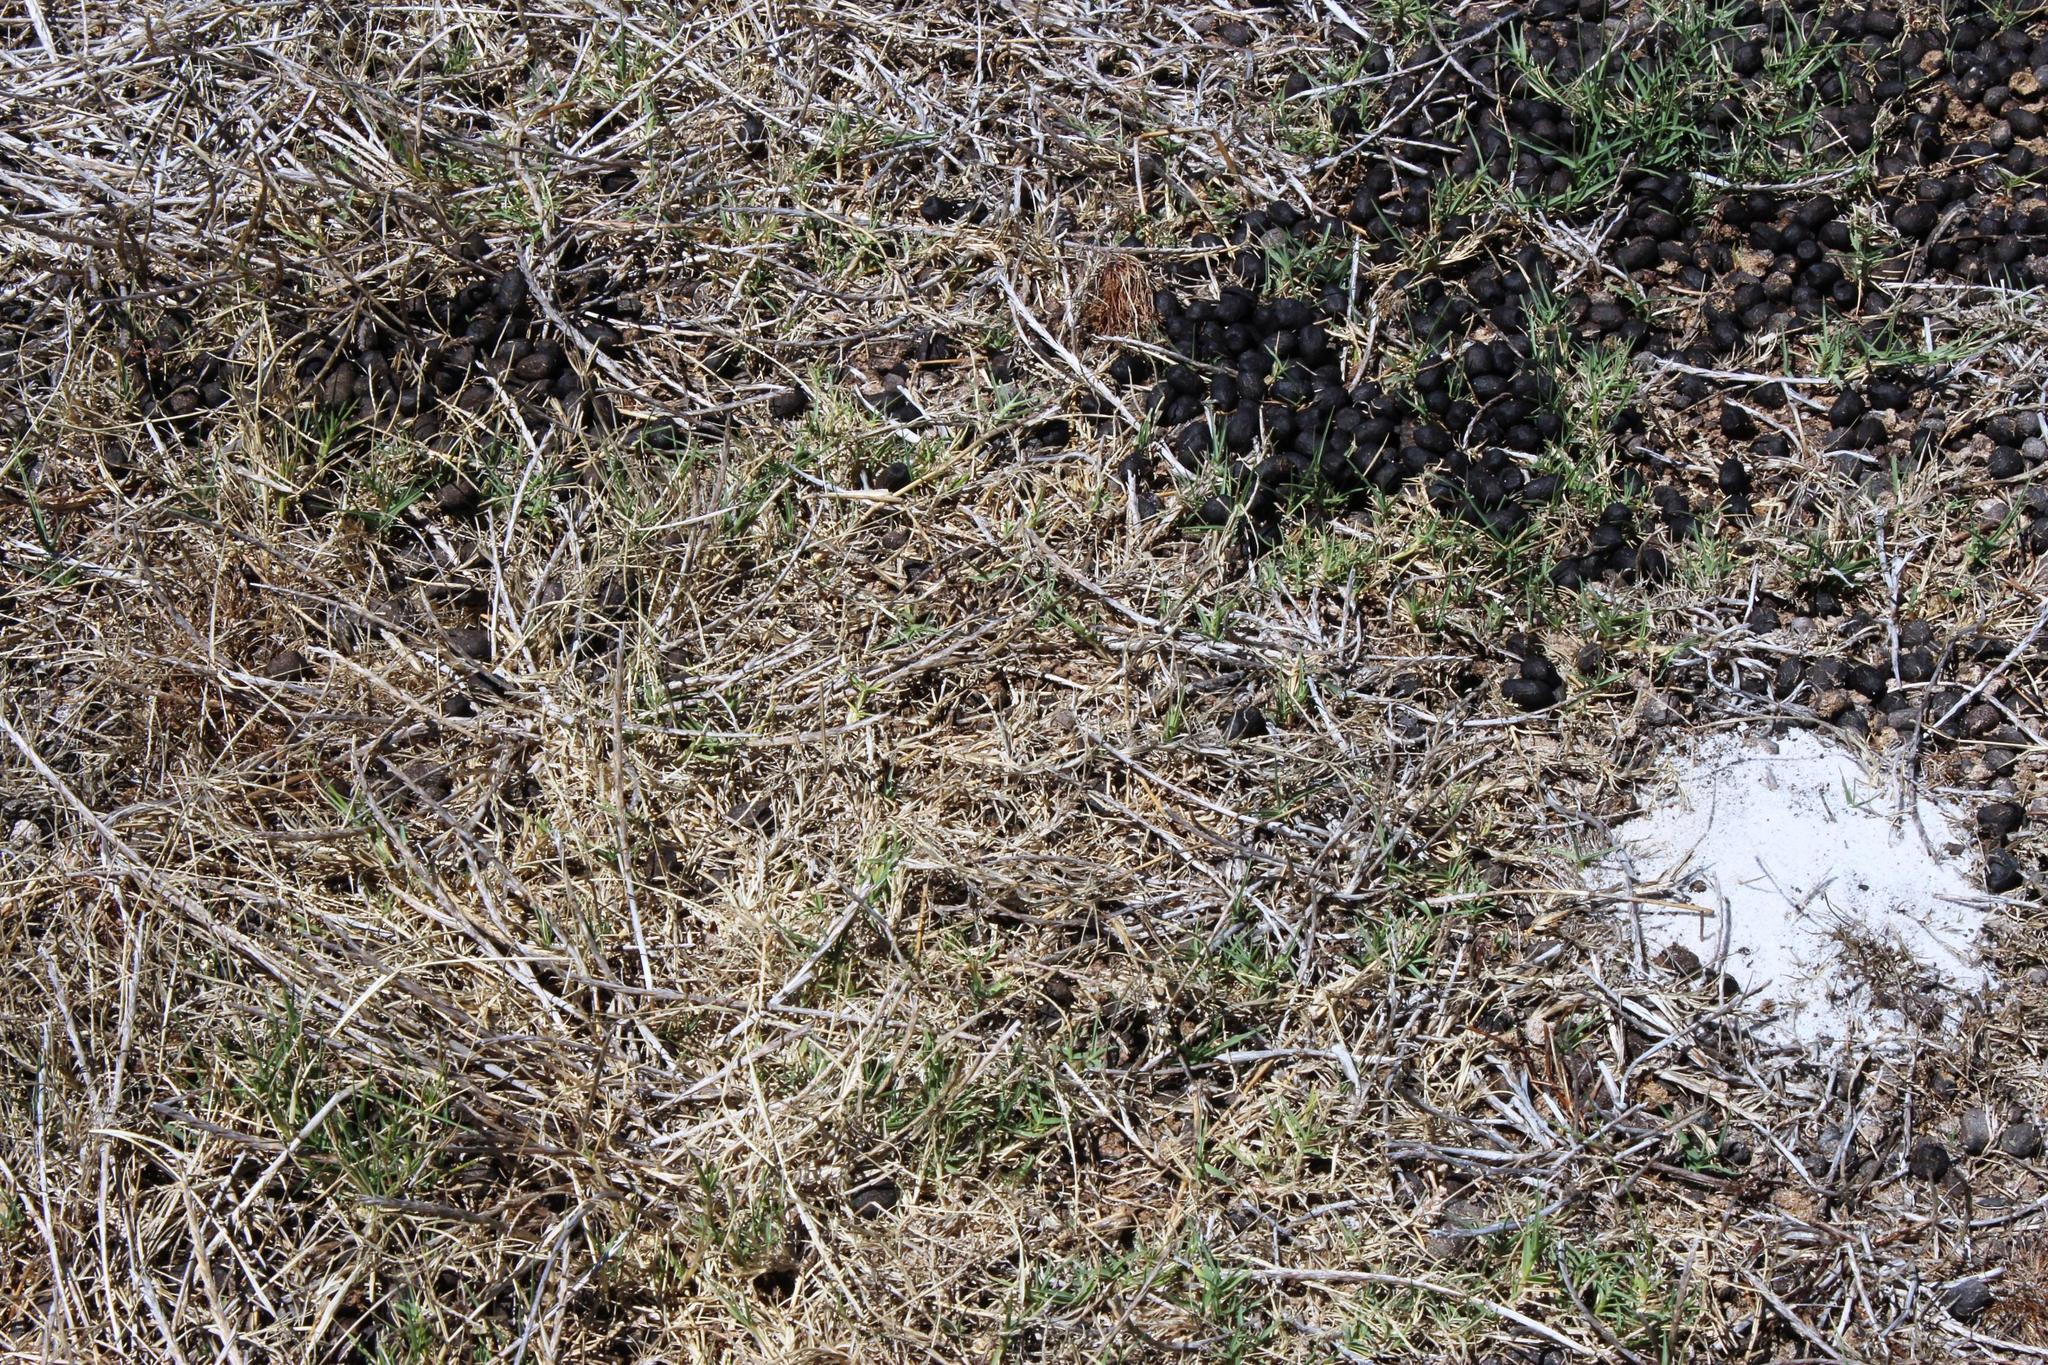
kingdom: Animalia
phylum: Chordata
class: Mammalia
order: Artiodactyla
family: Bovidae
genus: Damaliscus
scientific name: Damaliscus pygargus
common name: Bontebok
